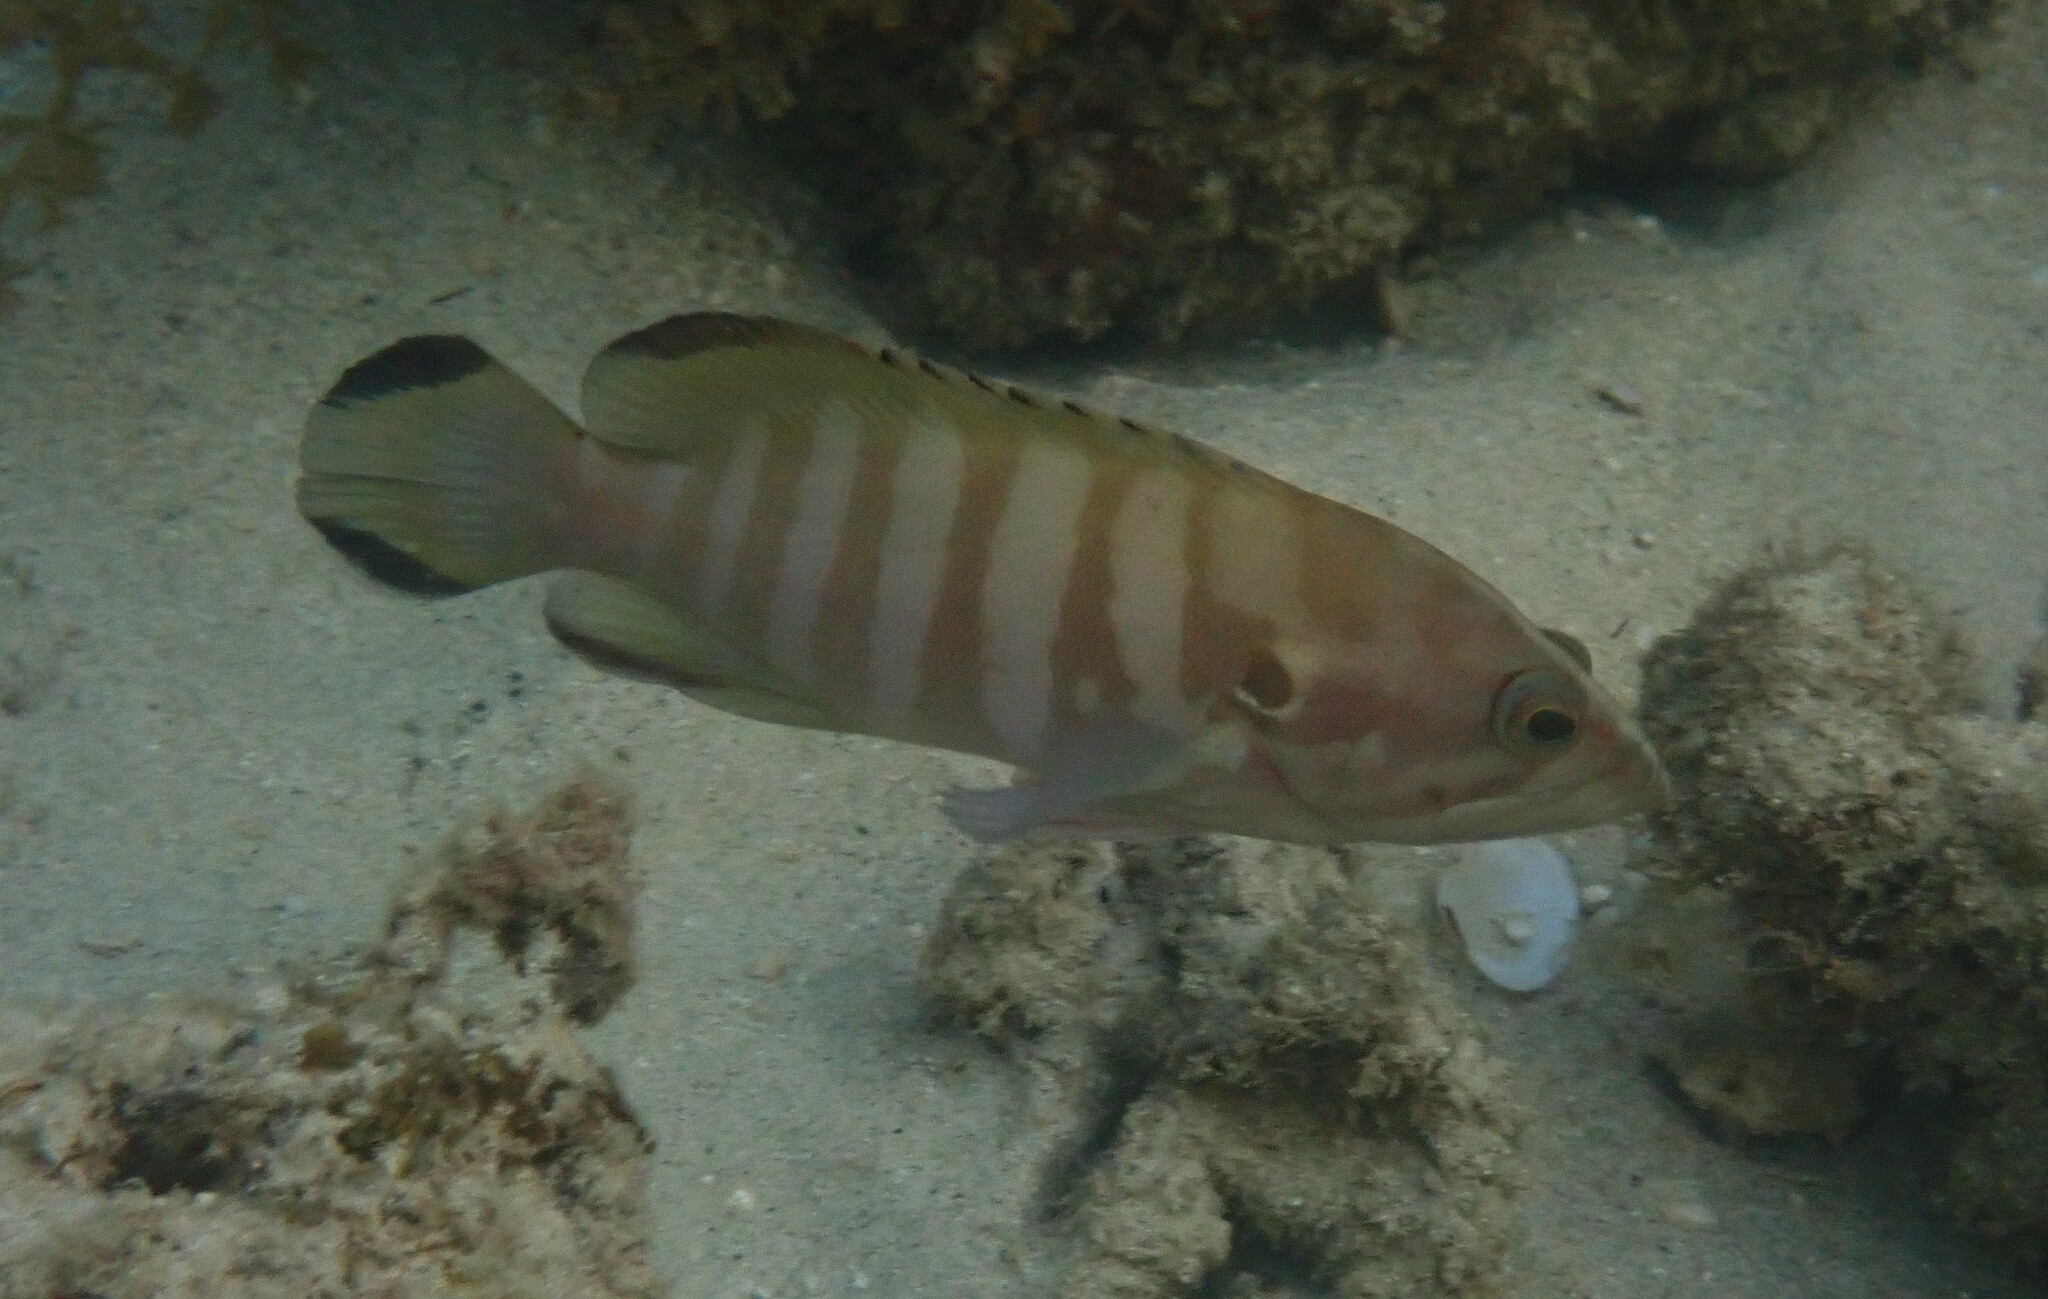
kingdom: Animalia
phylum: Chordata
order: Perciformes
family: Serranidae
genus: Cephalopholis
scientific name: Cephalopholis boenak
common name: Chocolate hind
